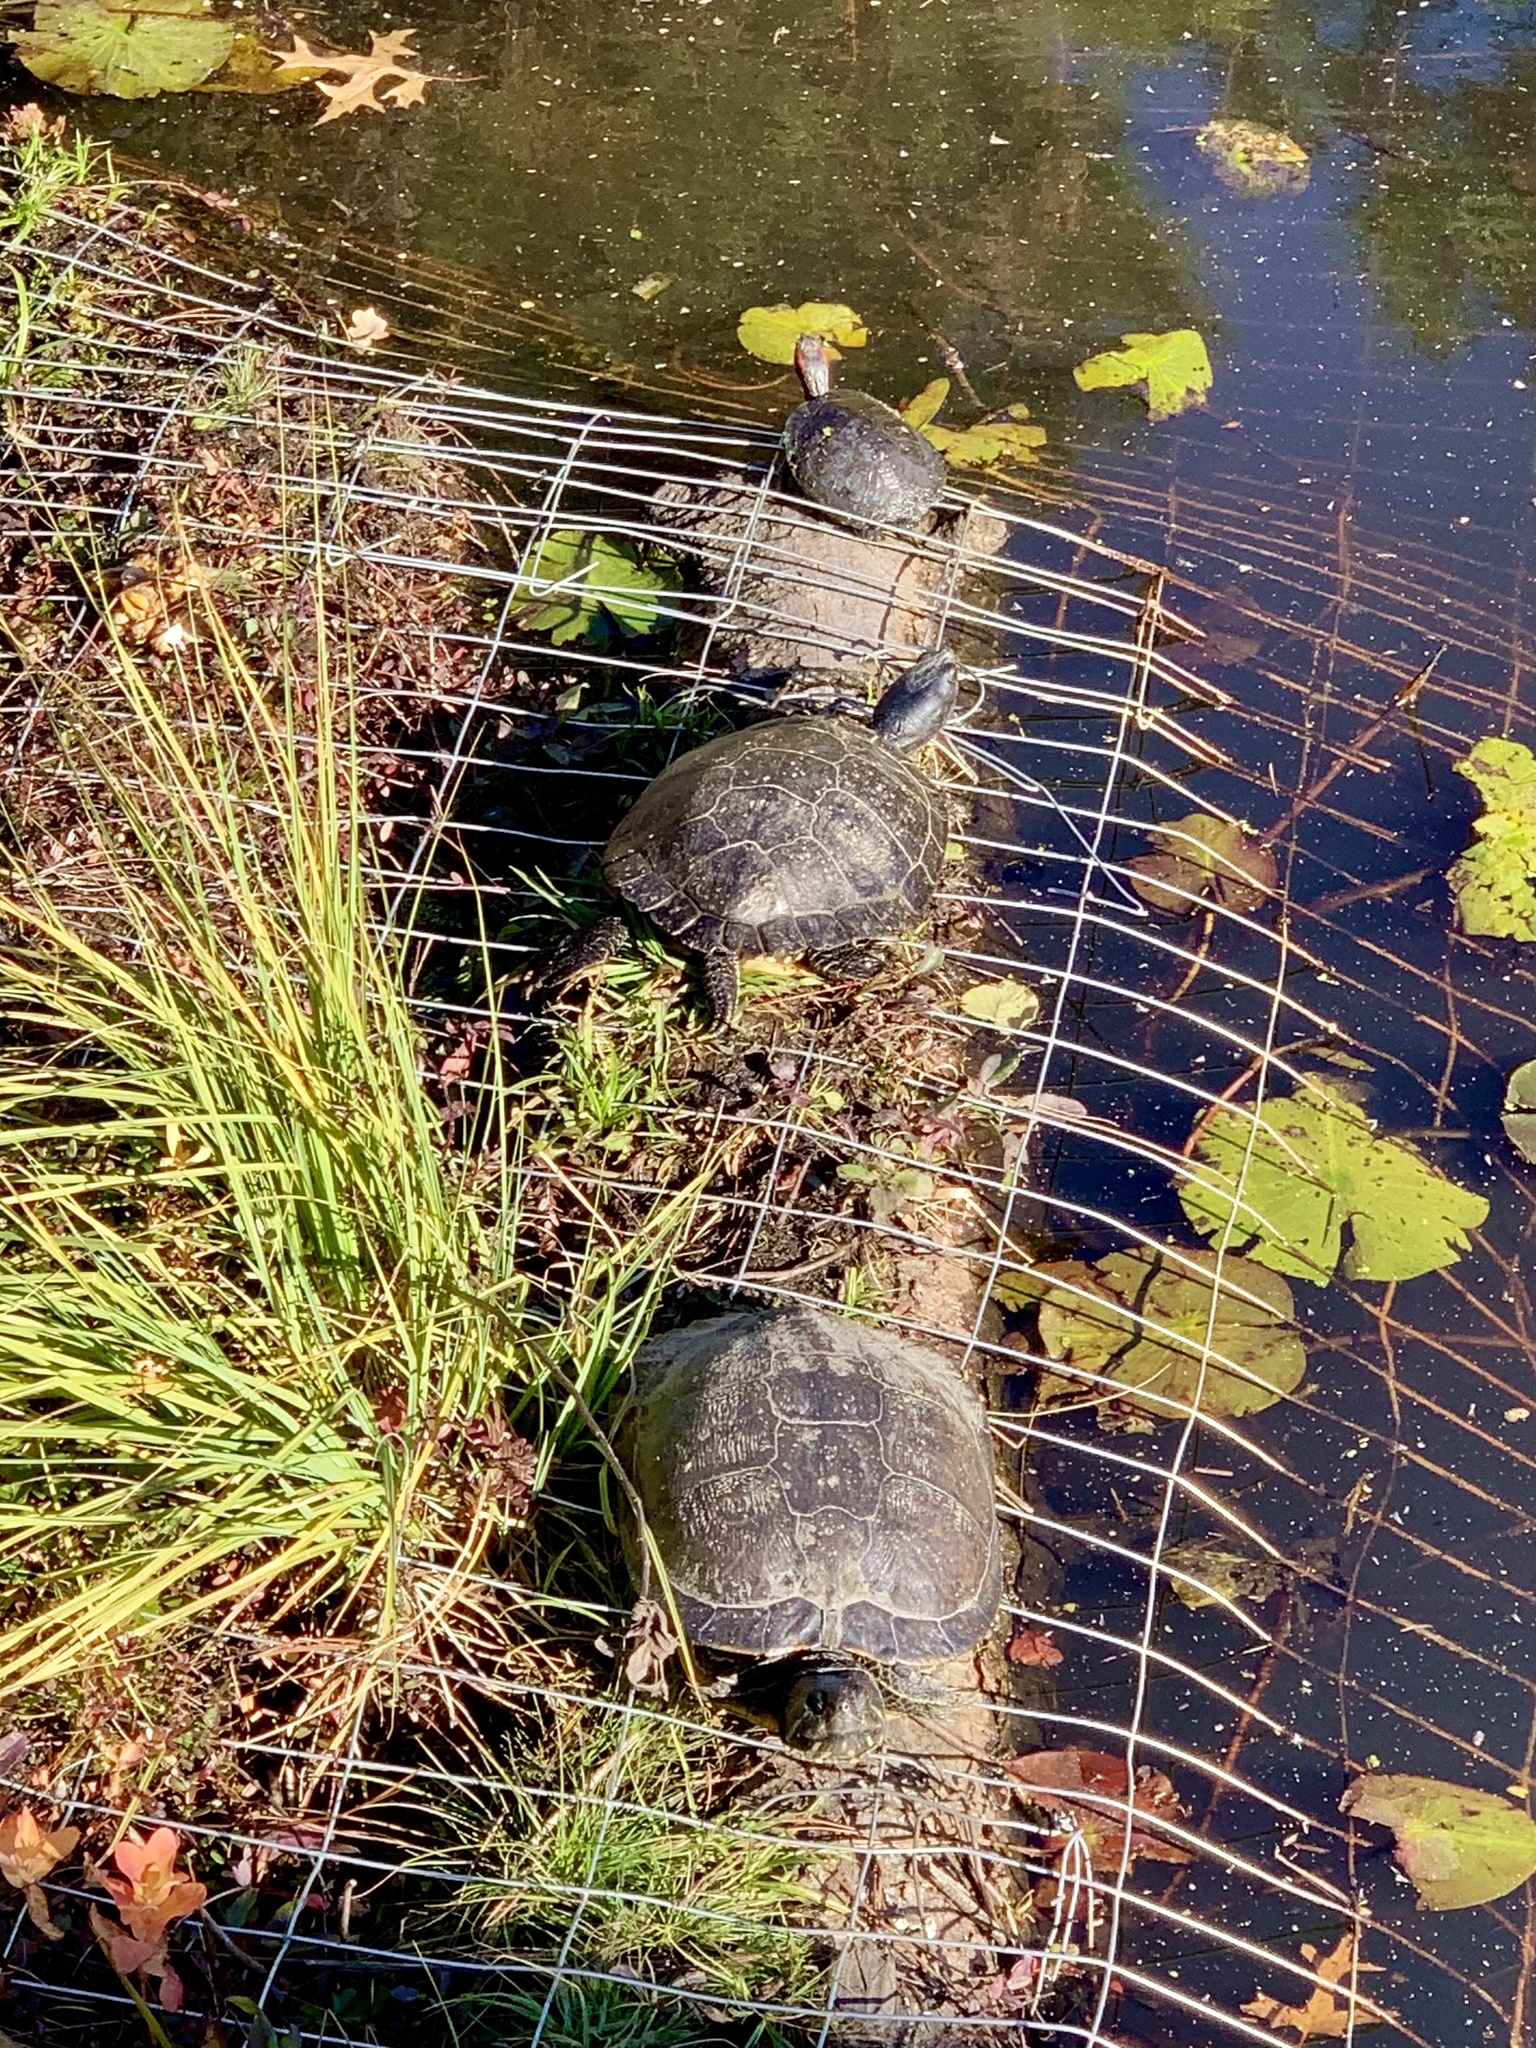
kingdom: Animalia
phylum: Chordata
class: Testudines
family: Emydidae
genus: Trachemys
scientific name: Trachemys scripta
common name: Slider
